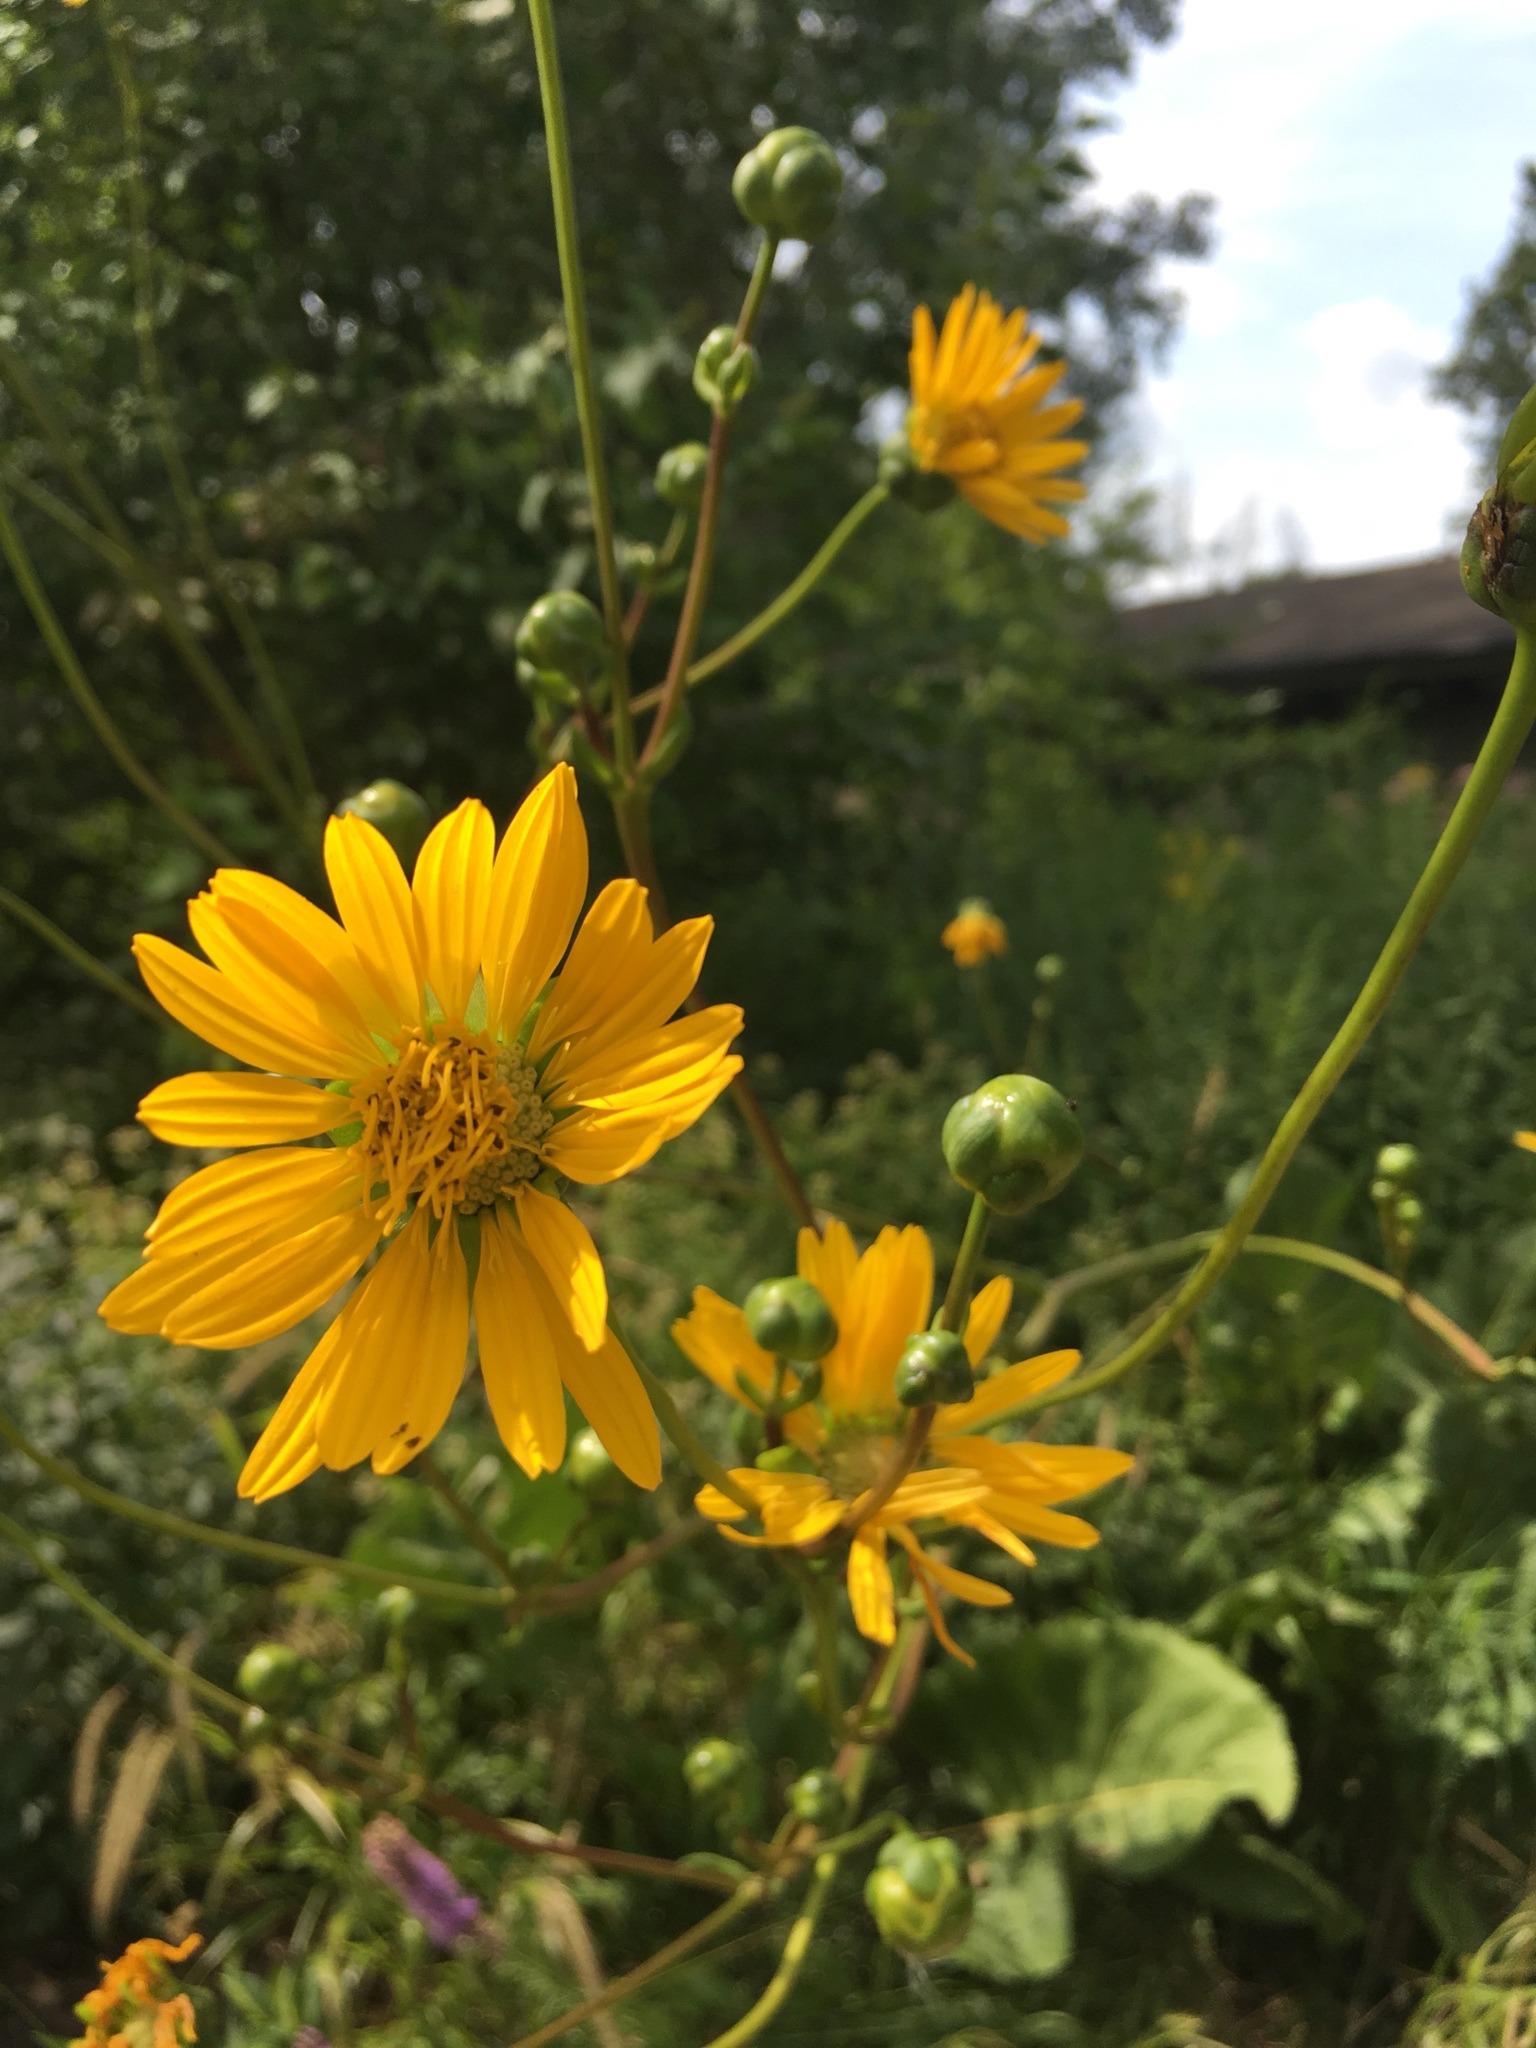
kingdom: Plantae
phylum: Tracheophyta
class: Magnoliopsida
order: Asterales
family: Asteraceae
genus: Silphium
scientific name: Silphium terebinthinaceum
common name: Basal-leaf rosinweed
